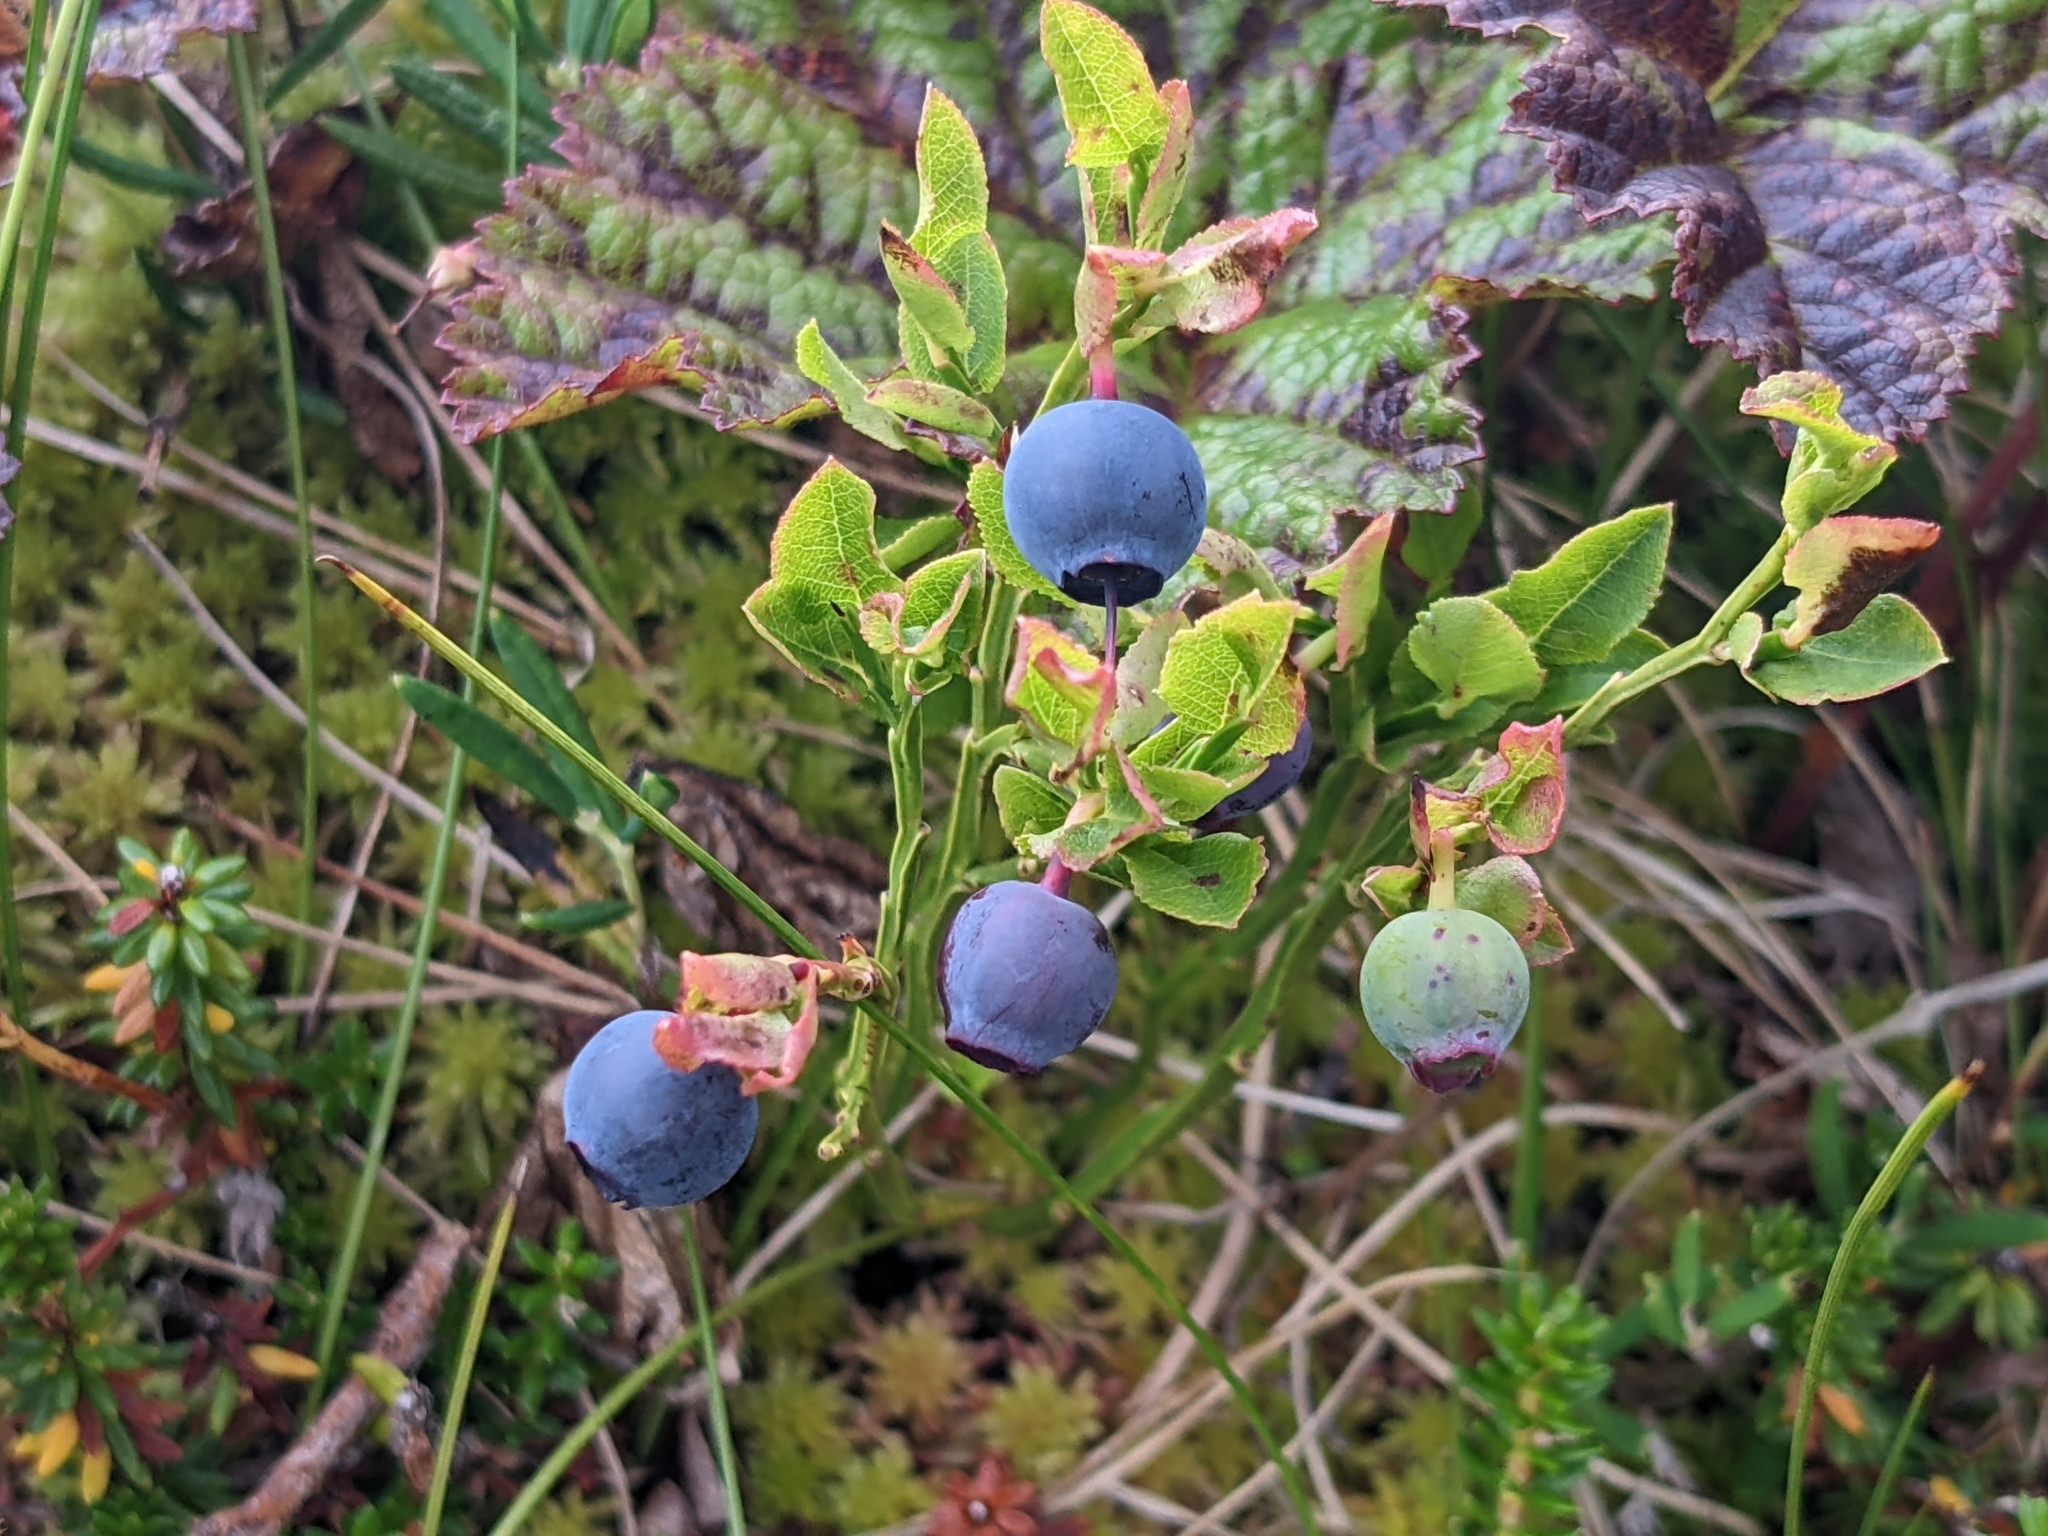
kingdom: Plantae
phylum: Tracheophyta
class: Magnoliopsida
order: Ericales
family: Ericaceae
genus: Vaccinium
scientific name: Vaccinium myrtillus
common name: Bilberry
